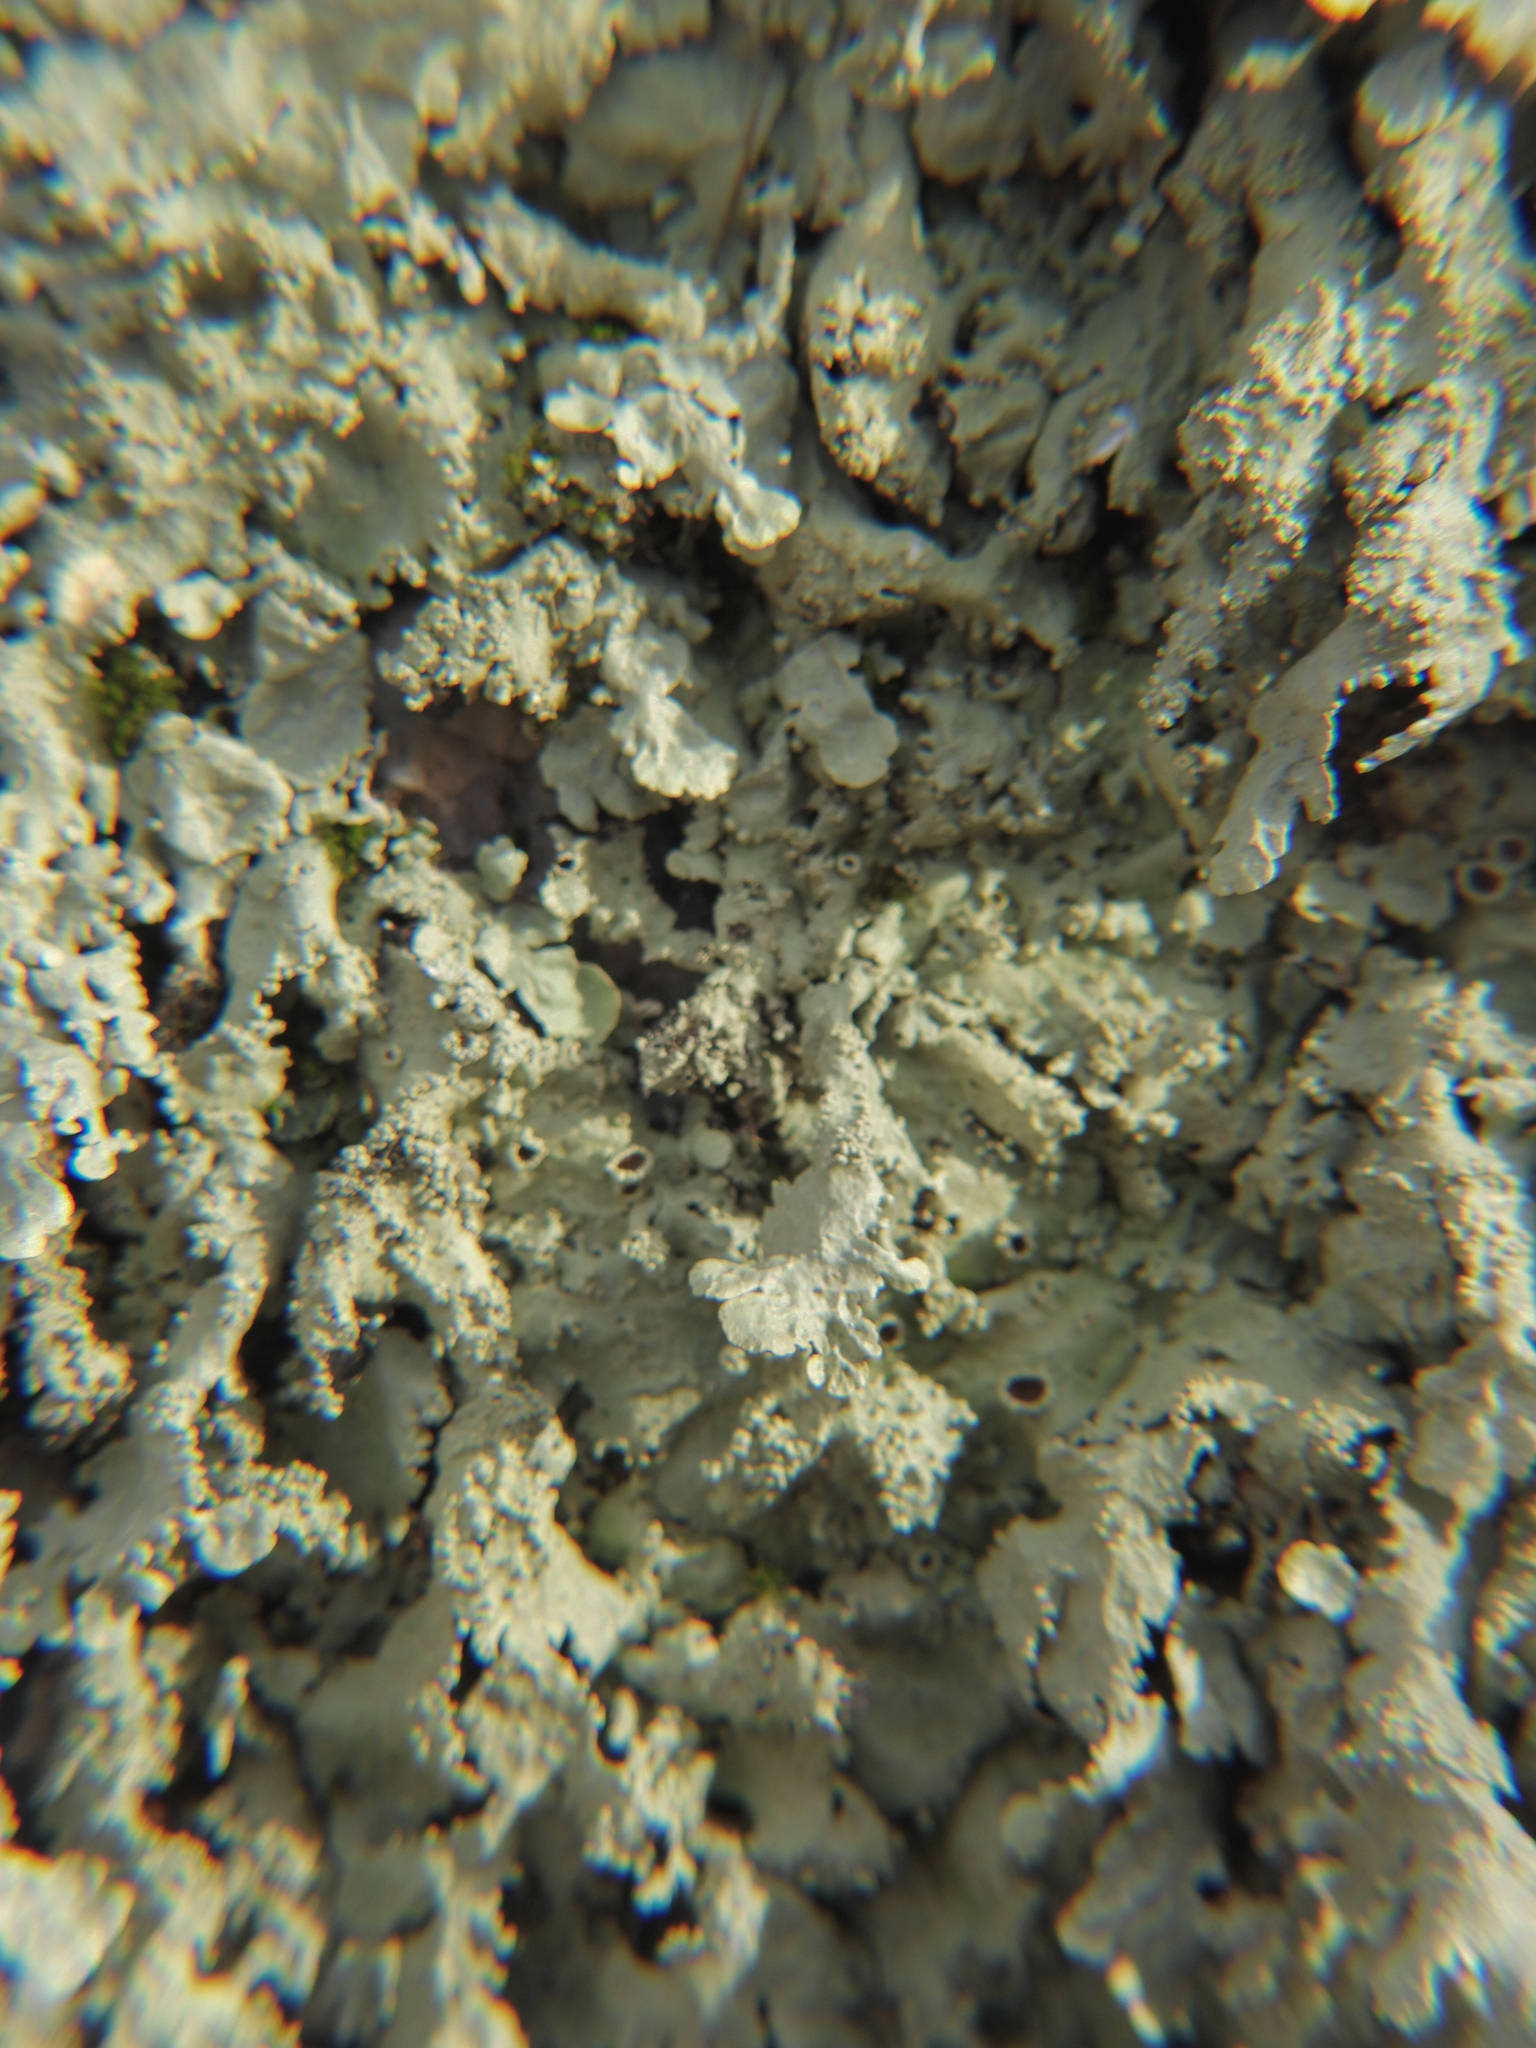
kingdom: Fungi
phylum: Ascomycota
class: Lecanoromycetes
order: Lecanorales
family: Parmeliaceae
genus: Flavoparmelia
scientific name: Flavoparmelia baltimorensis
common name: Rock greenshield
